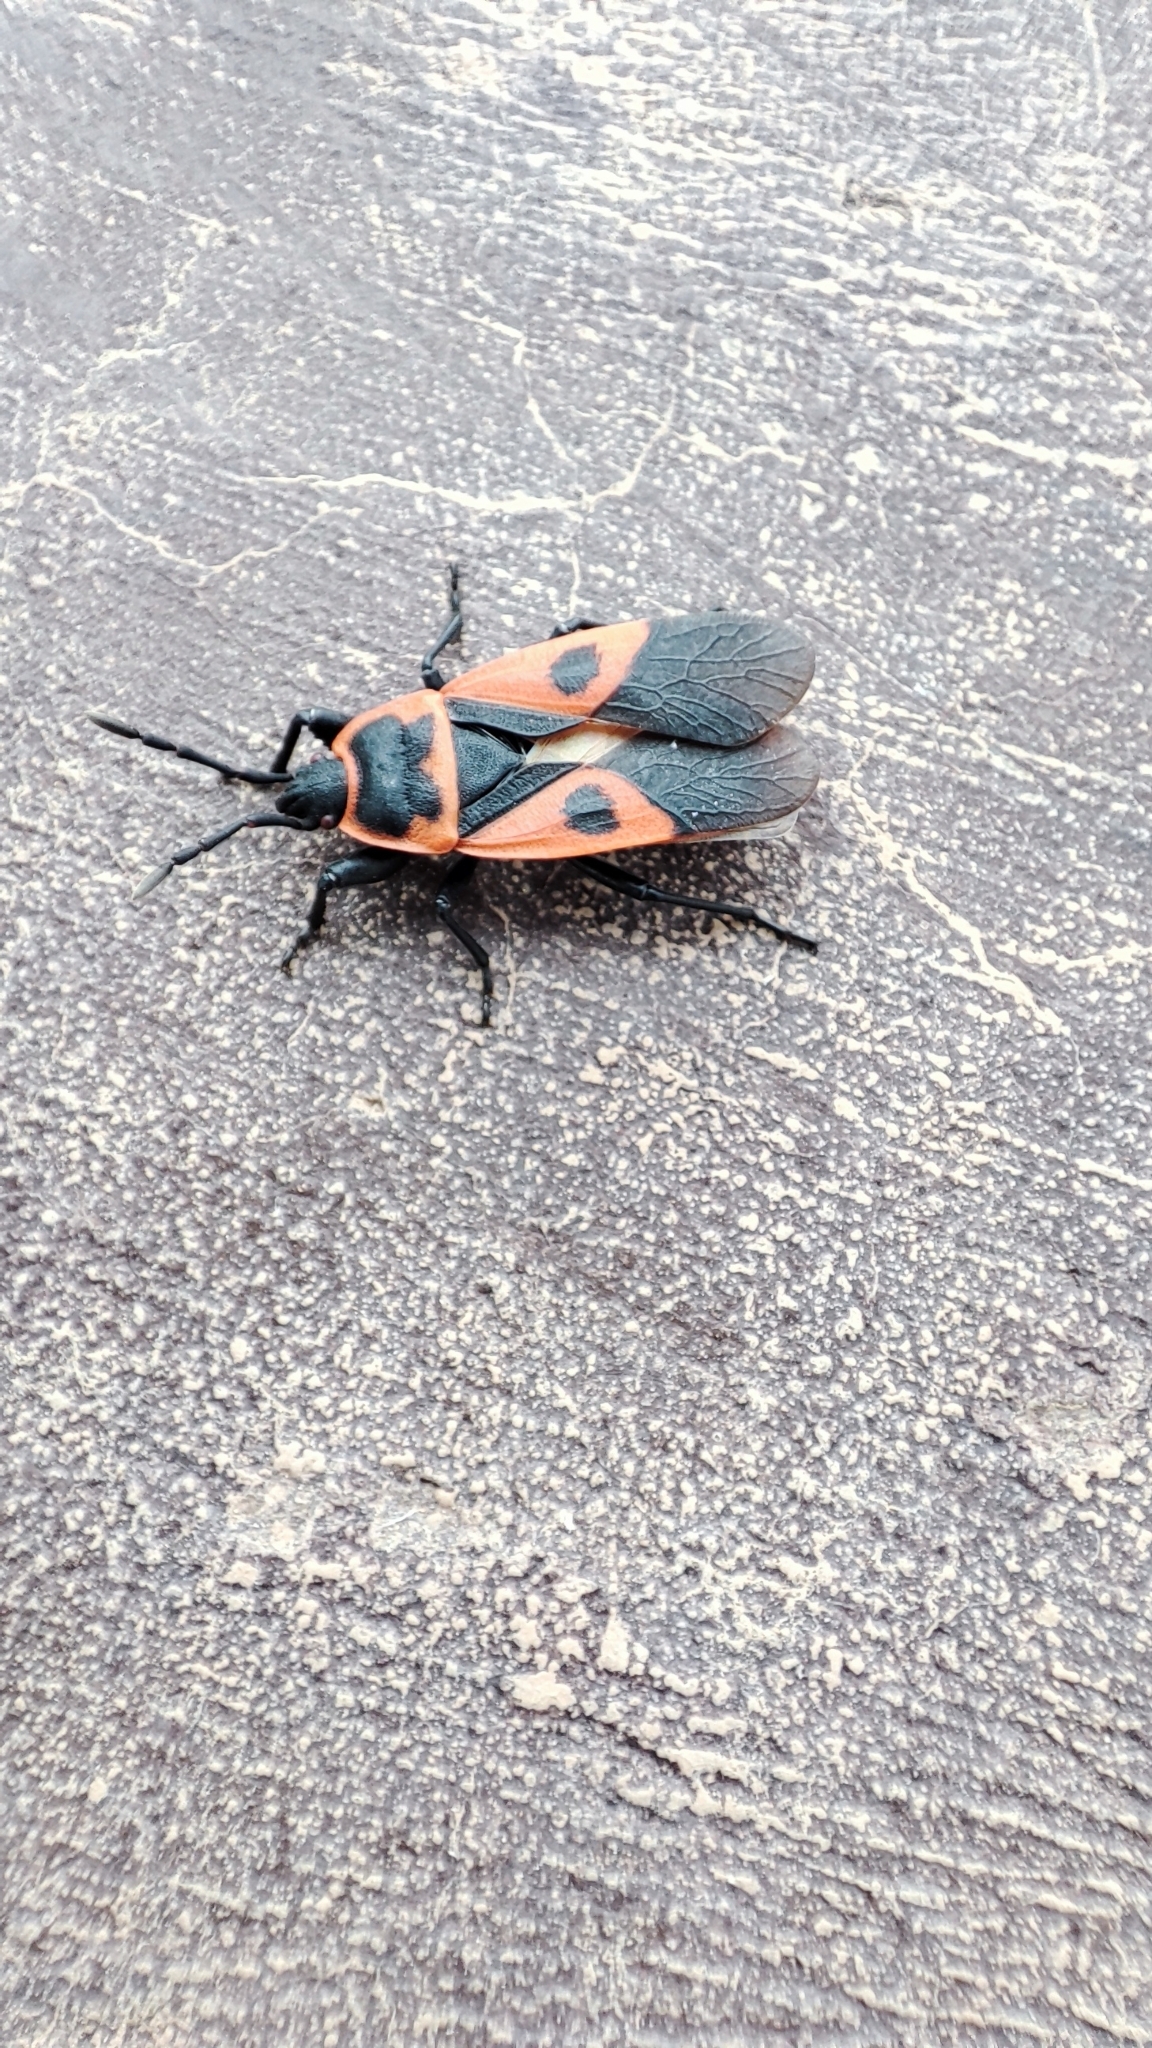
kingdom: Animalia
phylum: Arthropoda
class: Insecta
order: Hemiptera
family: Pyrrhocoridae
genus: Scantius
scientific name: Scantius aegyptius
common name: Red bug
